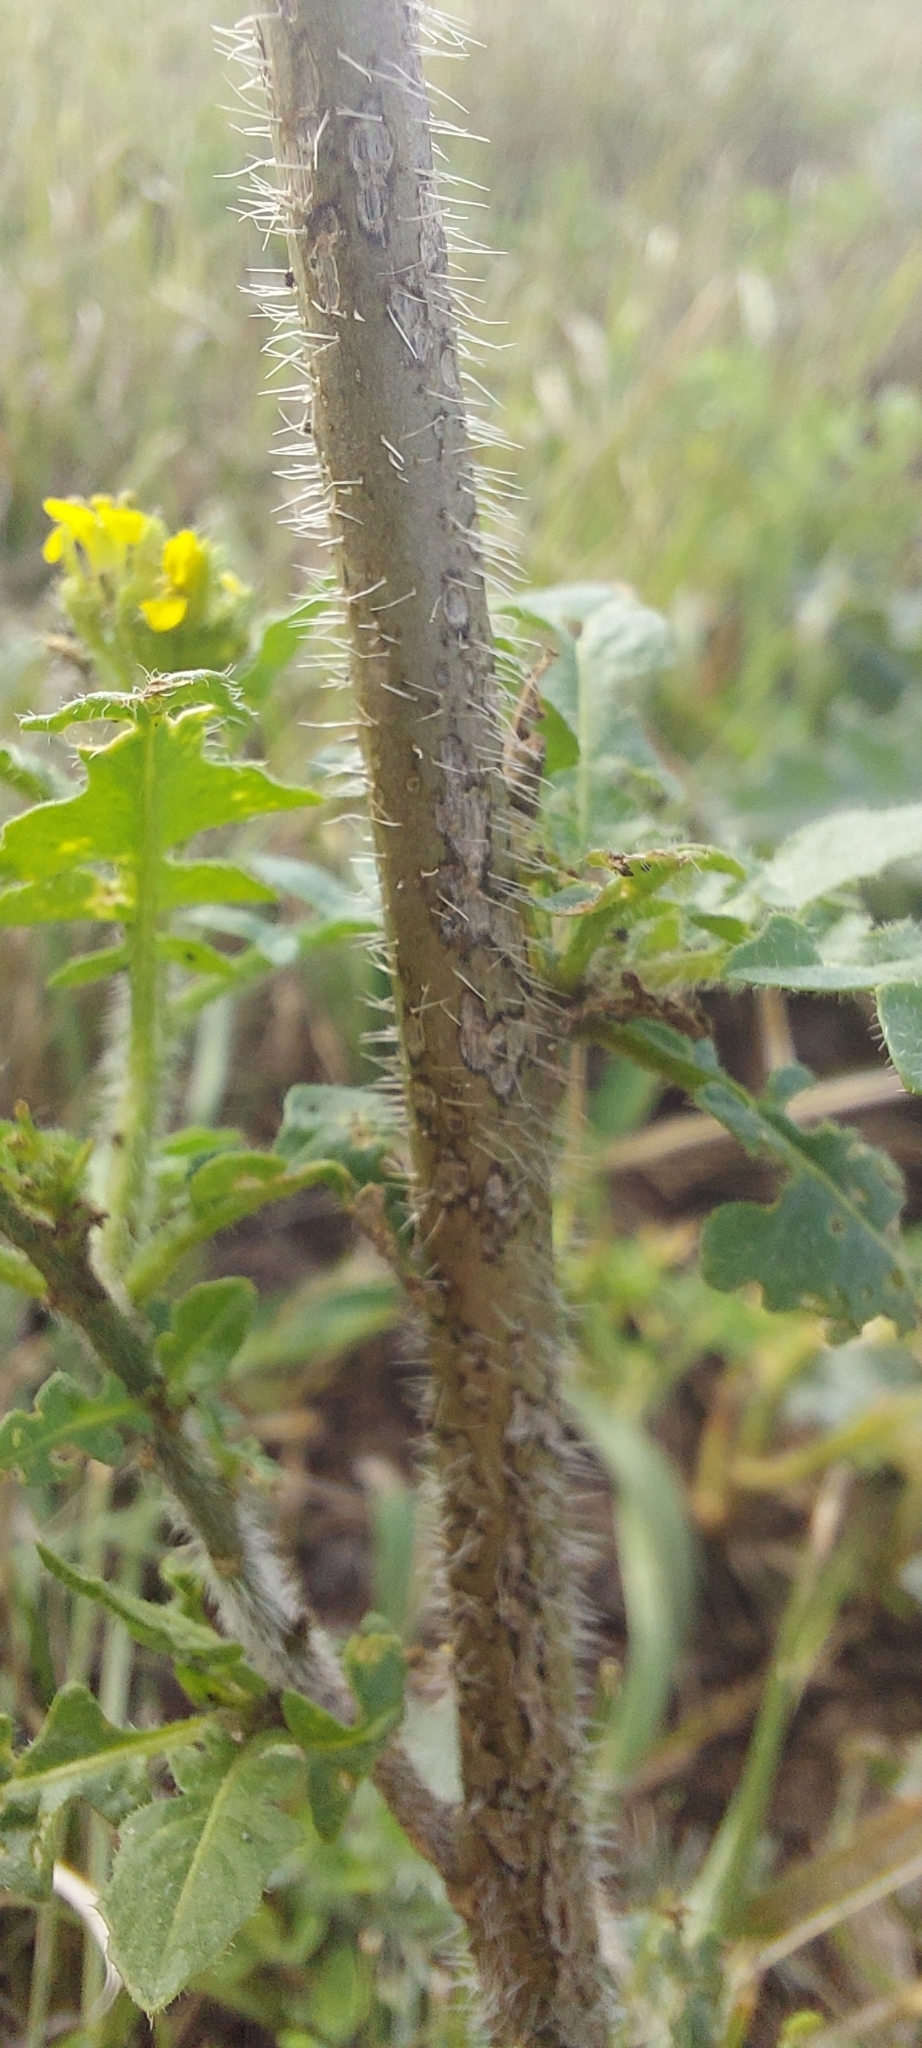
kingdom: Plantae
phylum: Tracheophyta
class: Magnoliopsida
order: Brassicales
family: Brassicaceae
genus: Sisymbrium
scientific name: Sisymbrium loeselii
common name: False london-rocket
